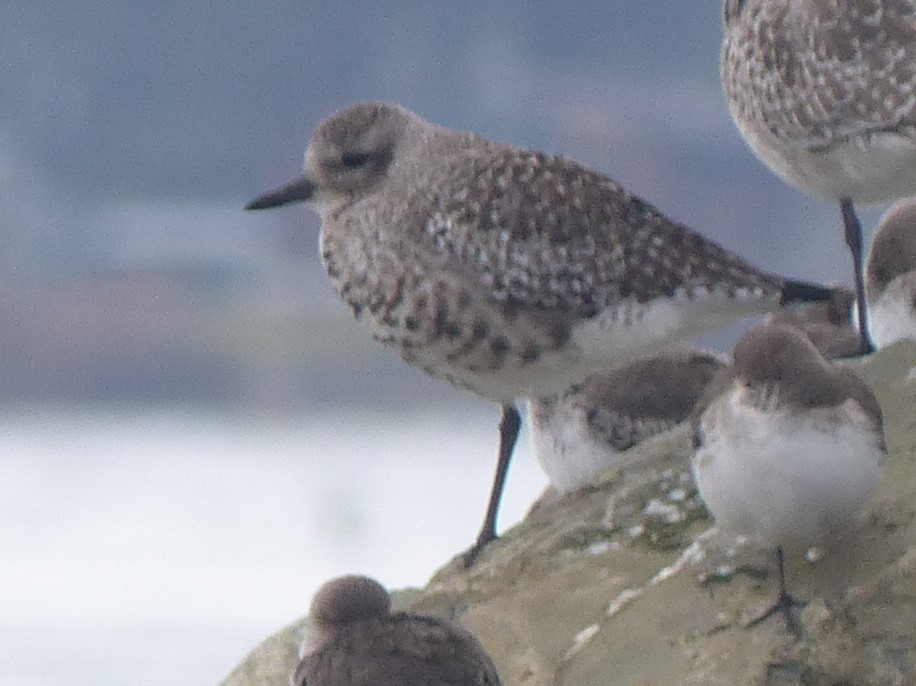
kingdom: Animalia
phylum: Chordata
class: Aves
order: Charadriiformes
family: Charadriidae
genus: Pluvialis
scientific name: Pluvialis squatarola
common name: Grey plover
